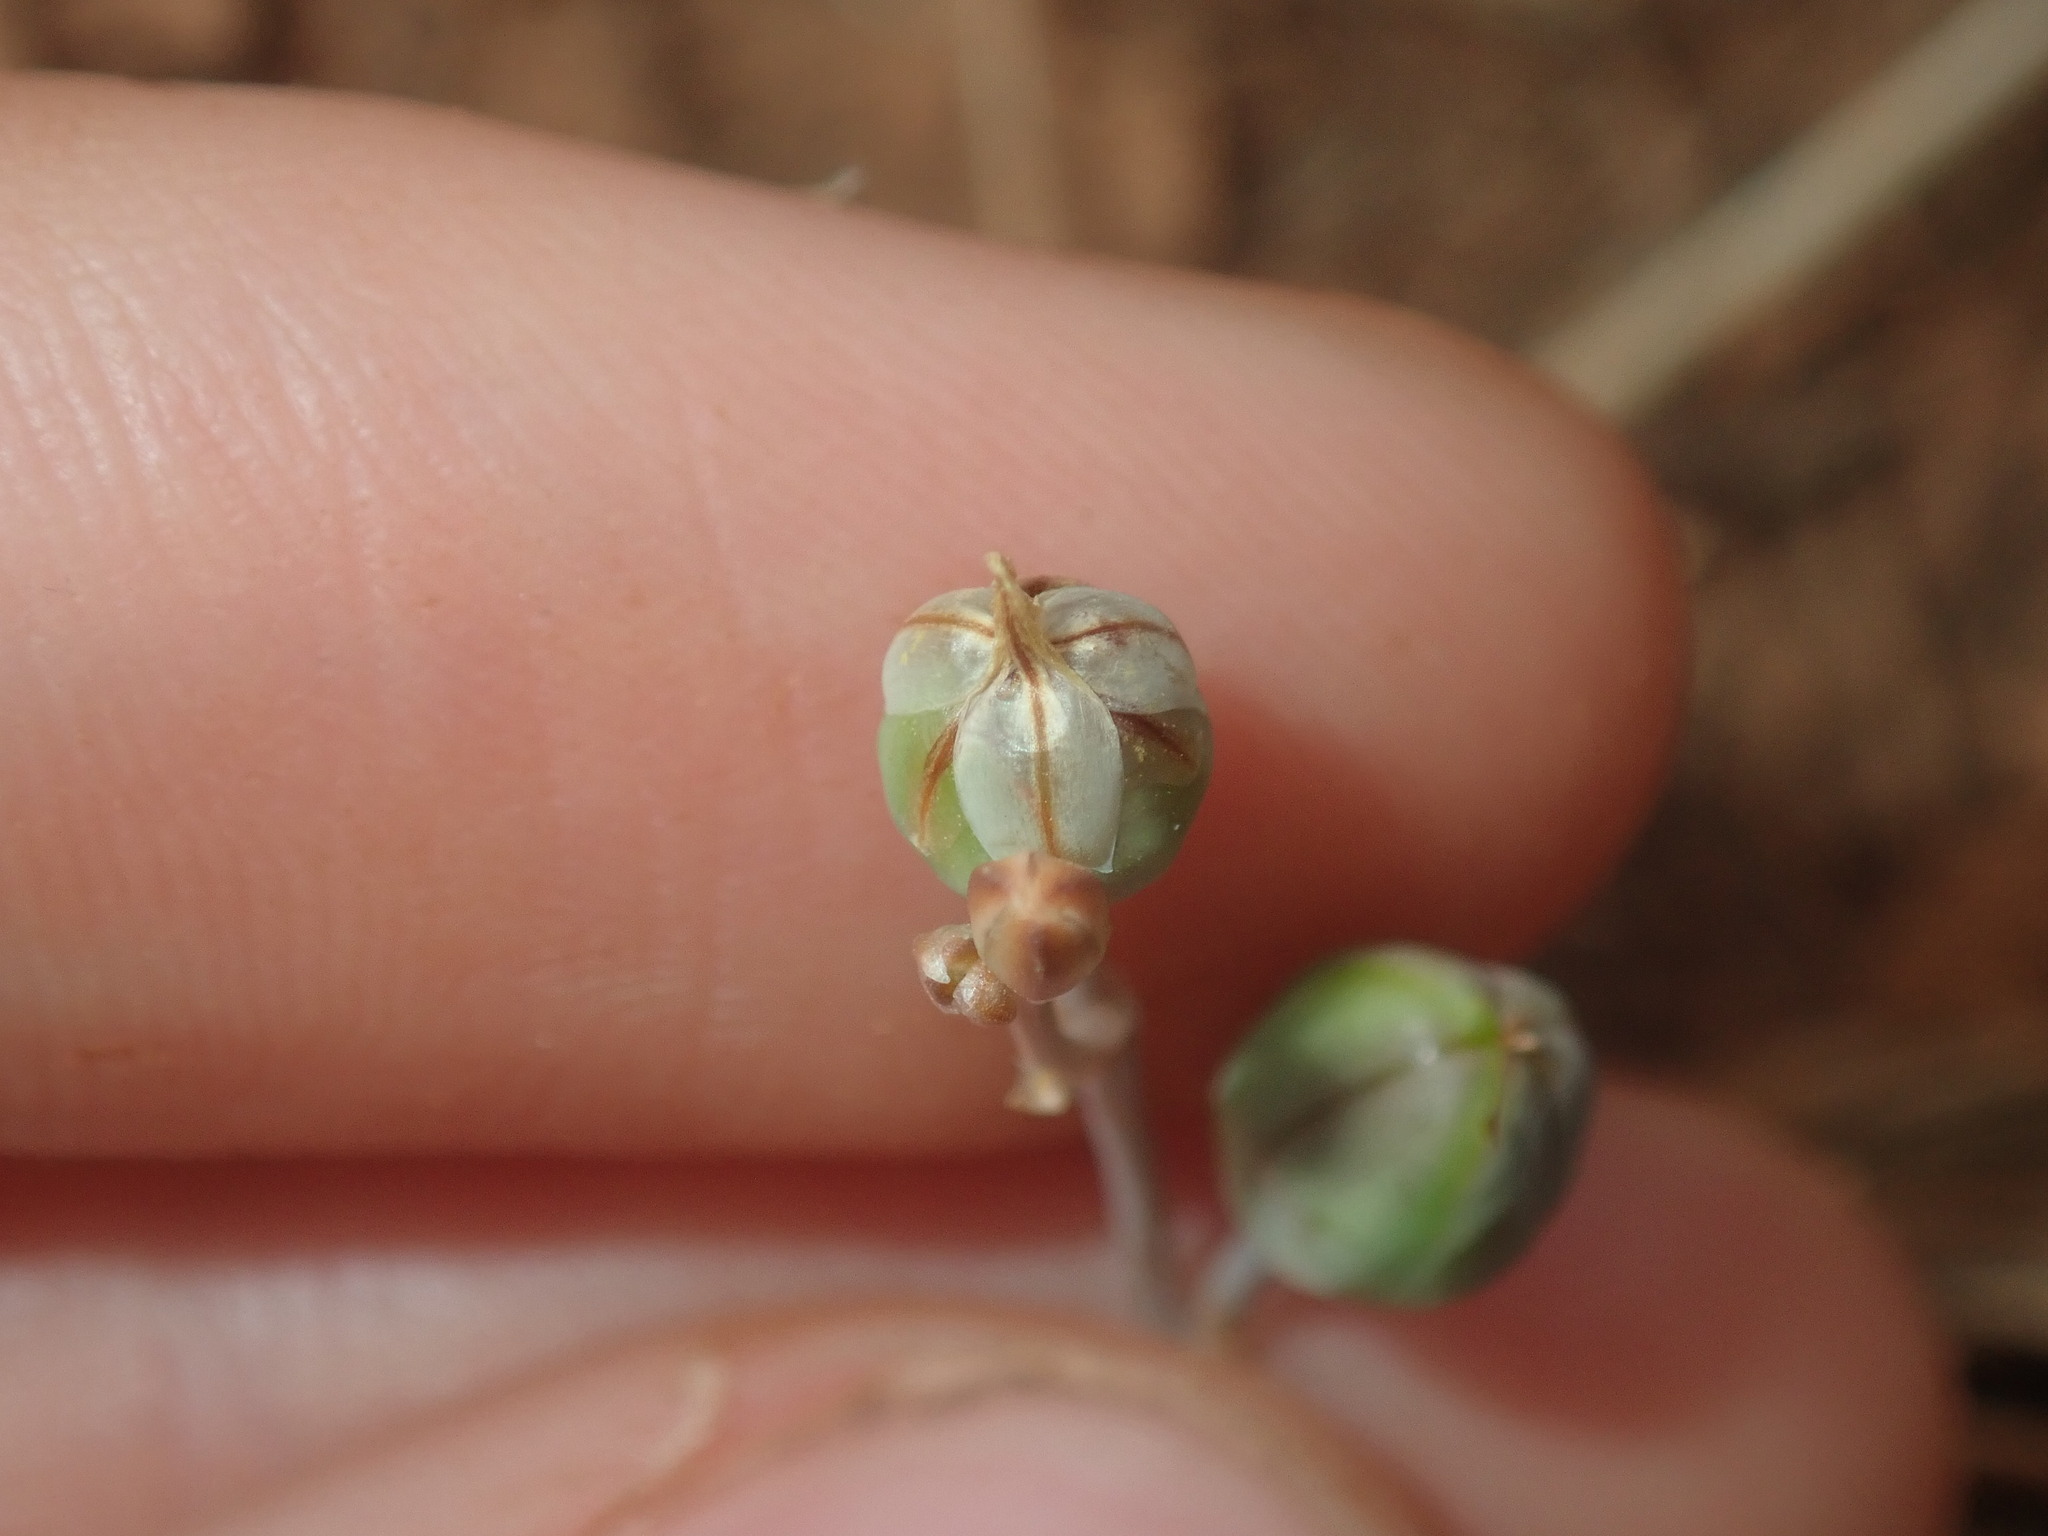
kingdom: Plantae
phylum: Tracheophyta
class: Liliopsida
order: Asparagales
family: Asphodelaceae
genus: Bulbine
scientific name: Bulbine alata
